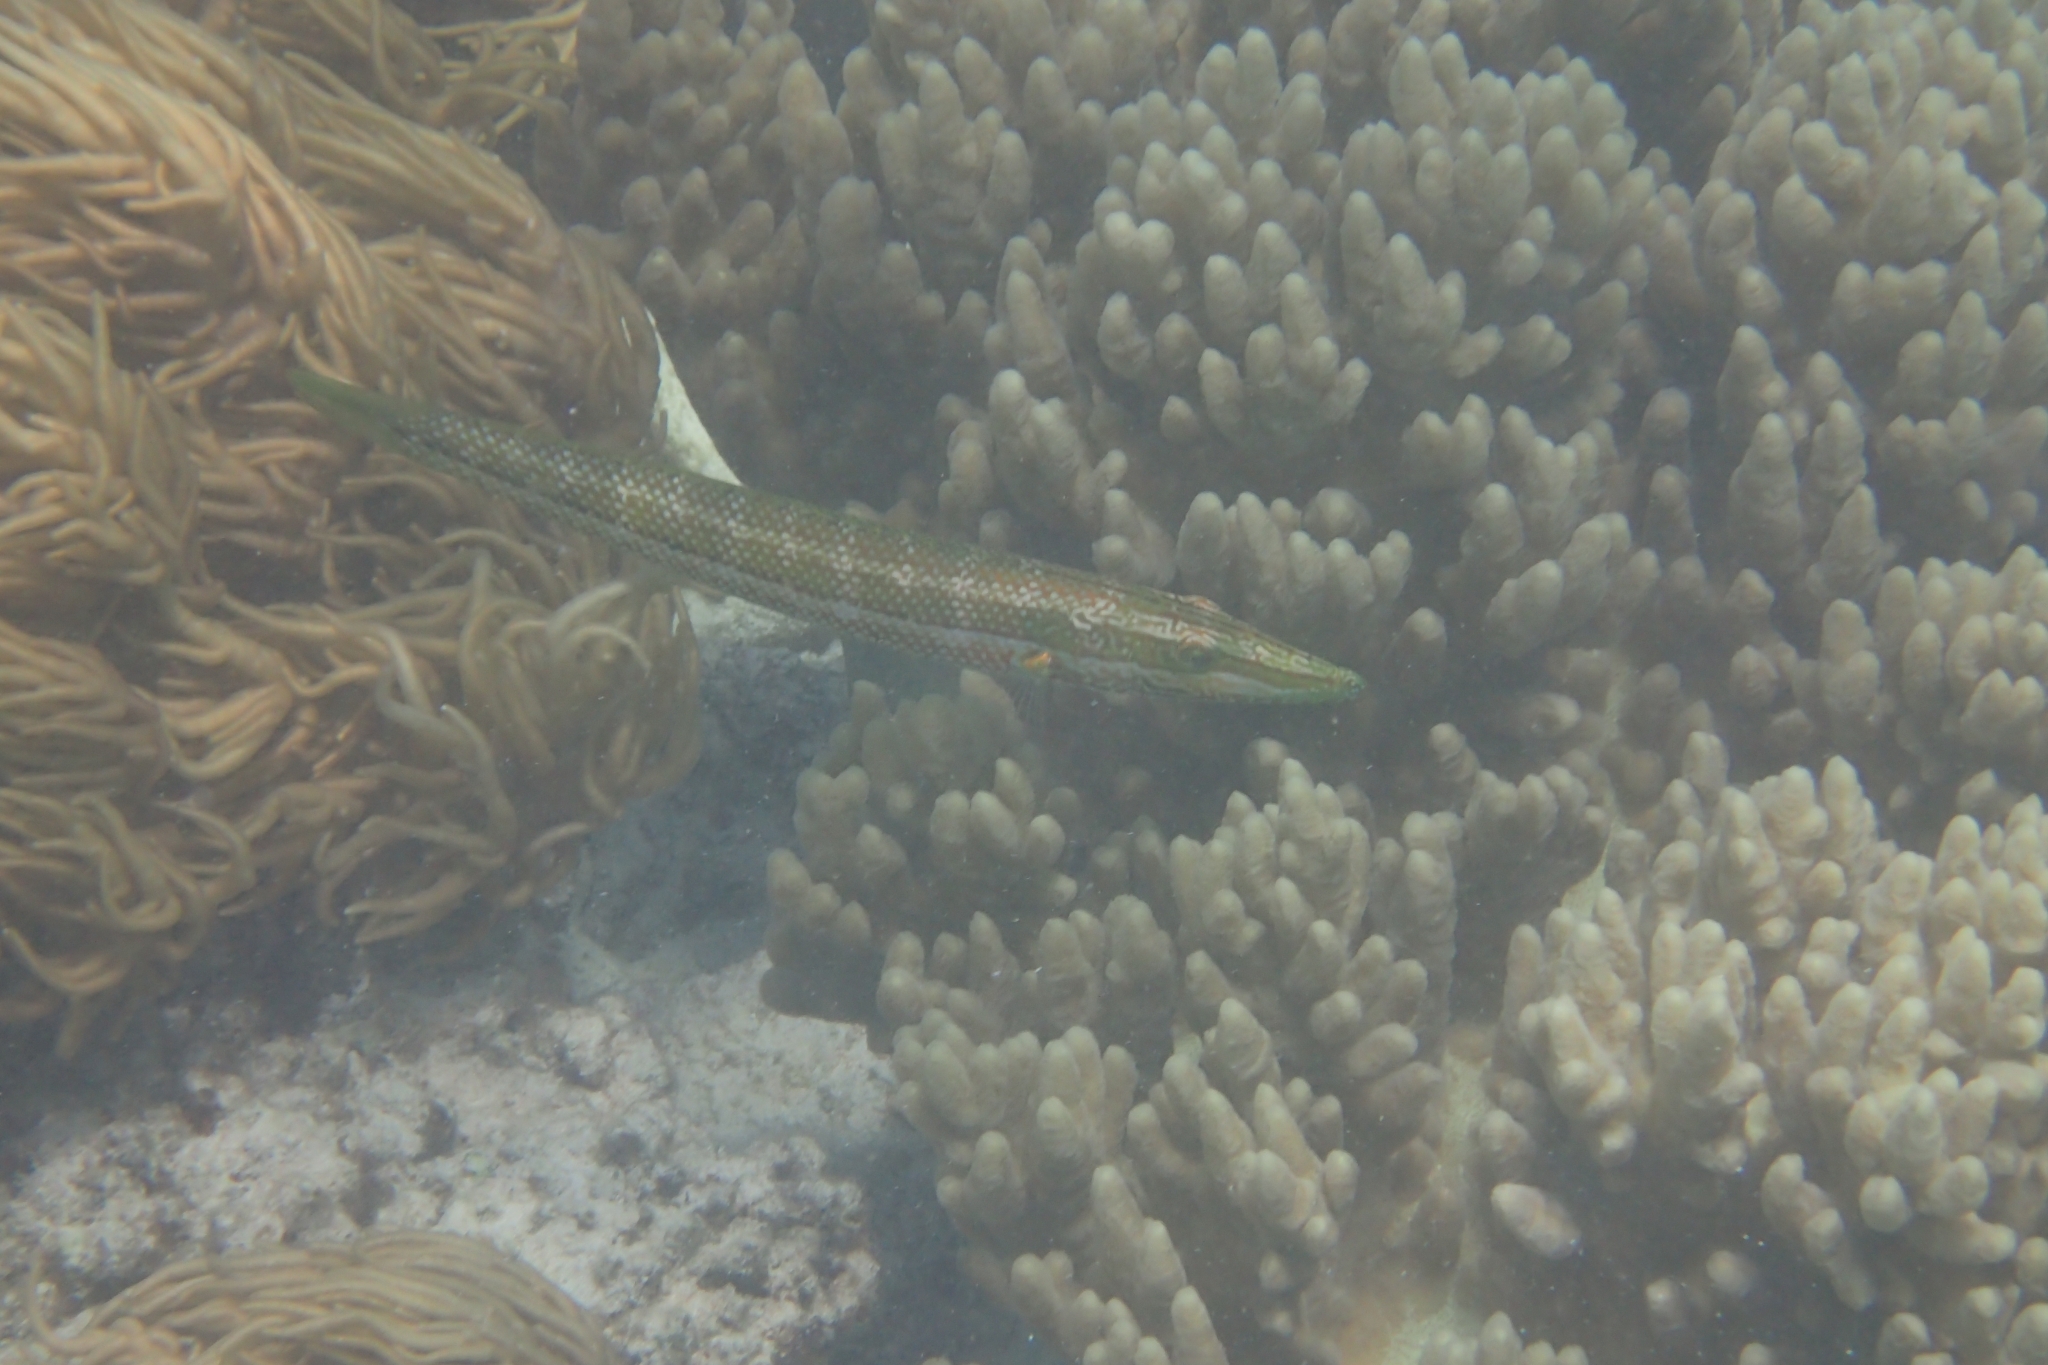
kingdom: Animalia
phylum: Chordata
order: Perciformes
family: Labridae
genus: Cheilio
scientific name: Cheilio inermis
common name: Cigar wrasse
